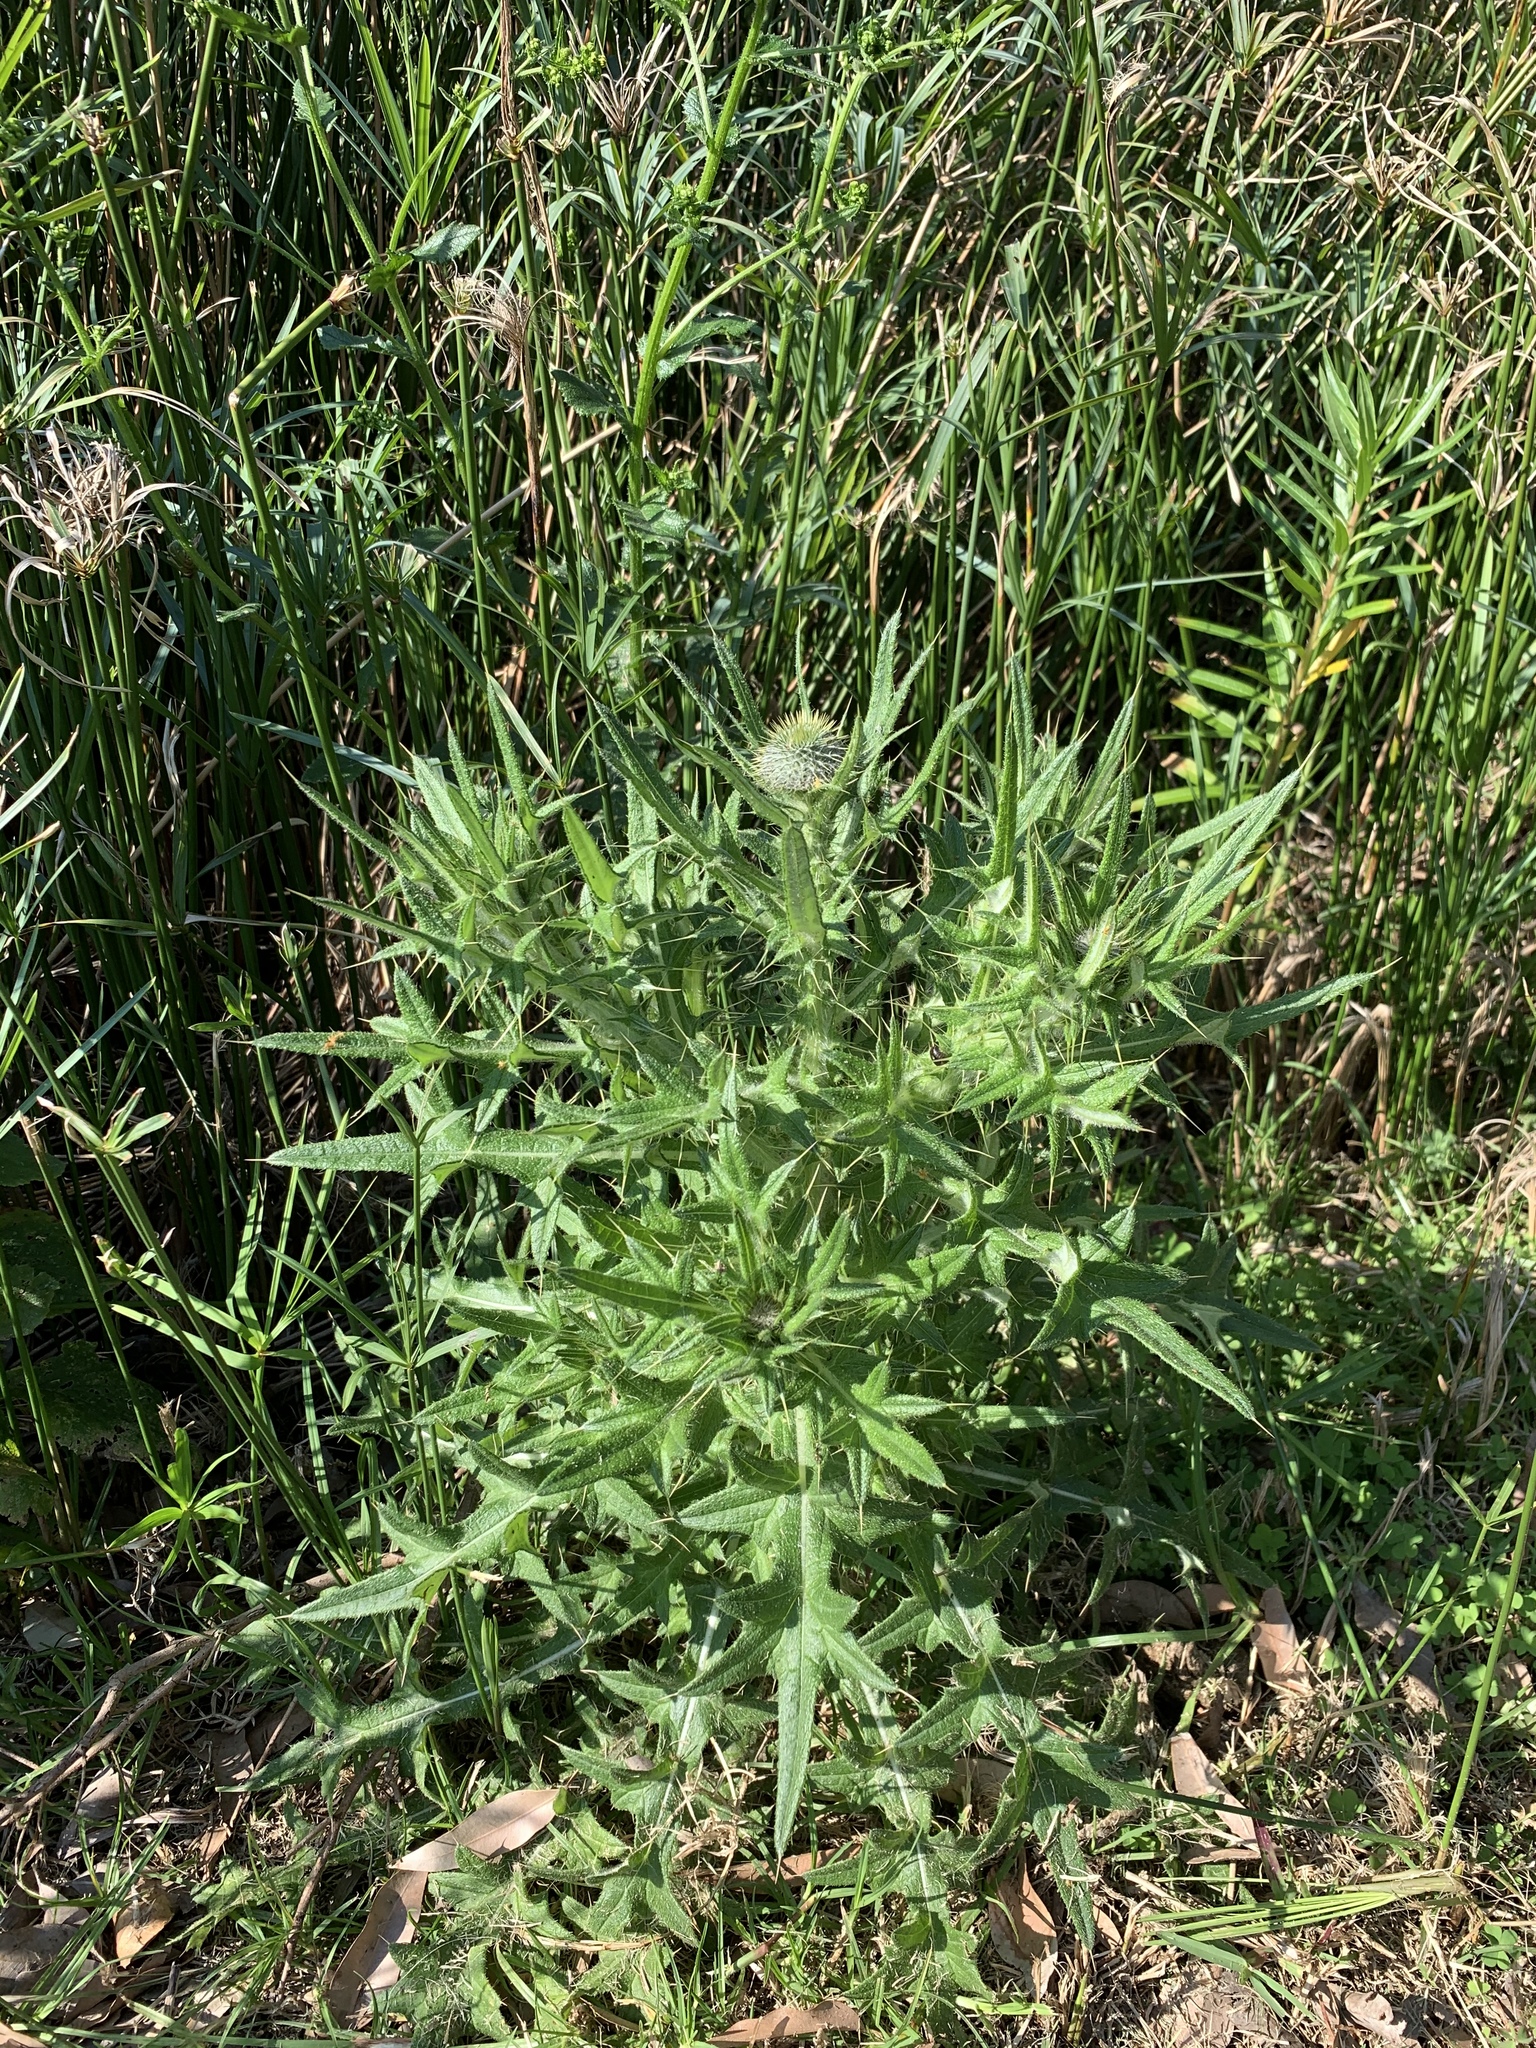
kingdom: Plantae
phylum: Tracheophyta
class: Magnoliopsida
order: Asterales
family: Asteraceae
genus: Cirsium
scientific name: Cirsium vulgare
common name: Bull thistle
